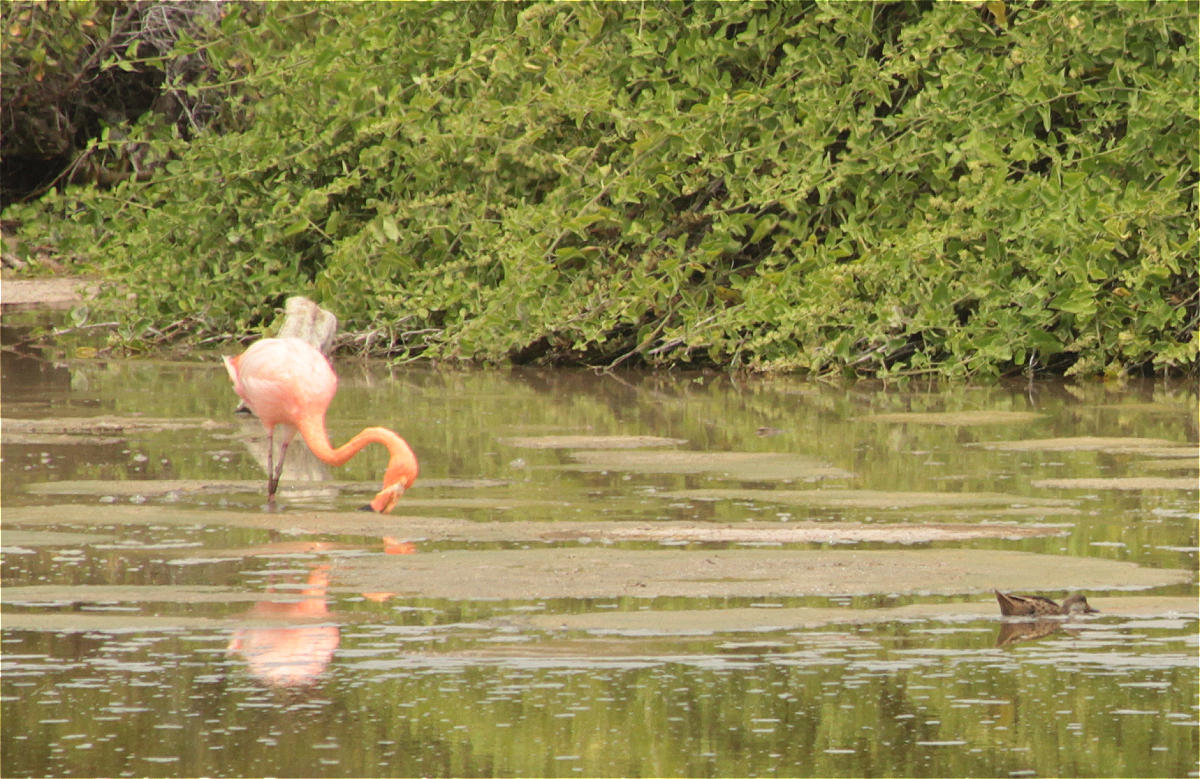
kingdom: Animalia
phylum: Chordata
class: Aves
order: Phoenicopteriformes
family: Phoenicopteridae
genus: Phoenicopterus
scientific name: Phoenicopterus ruber
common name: American flamingo
